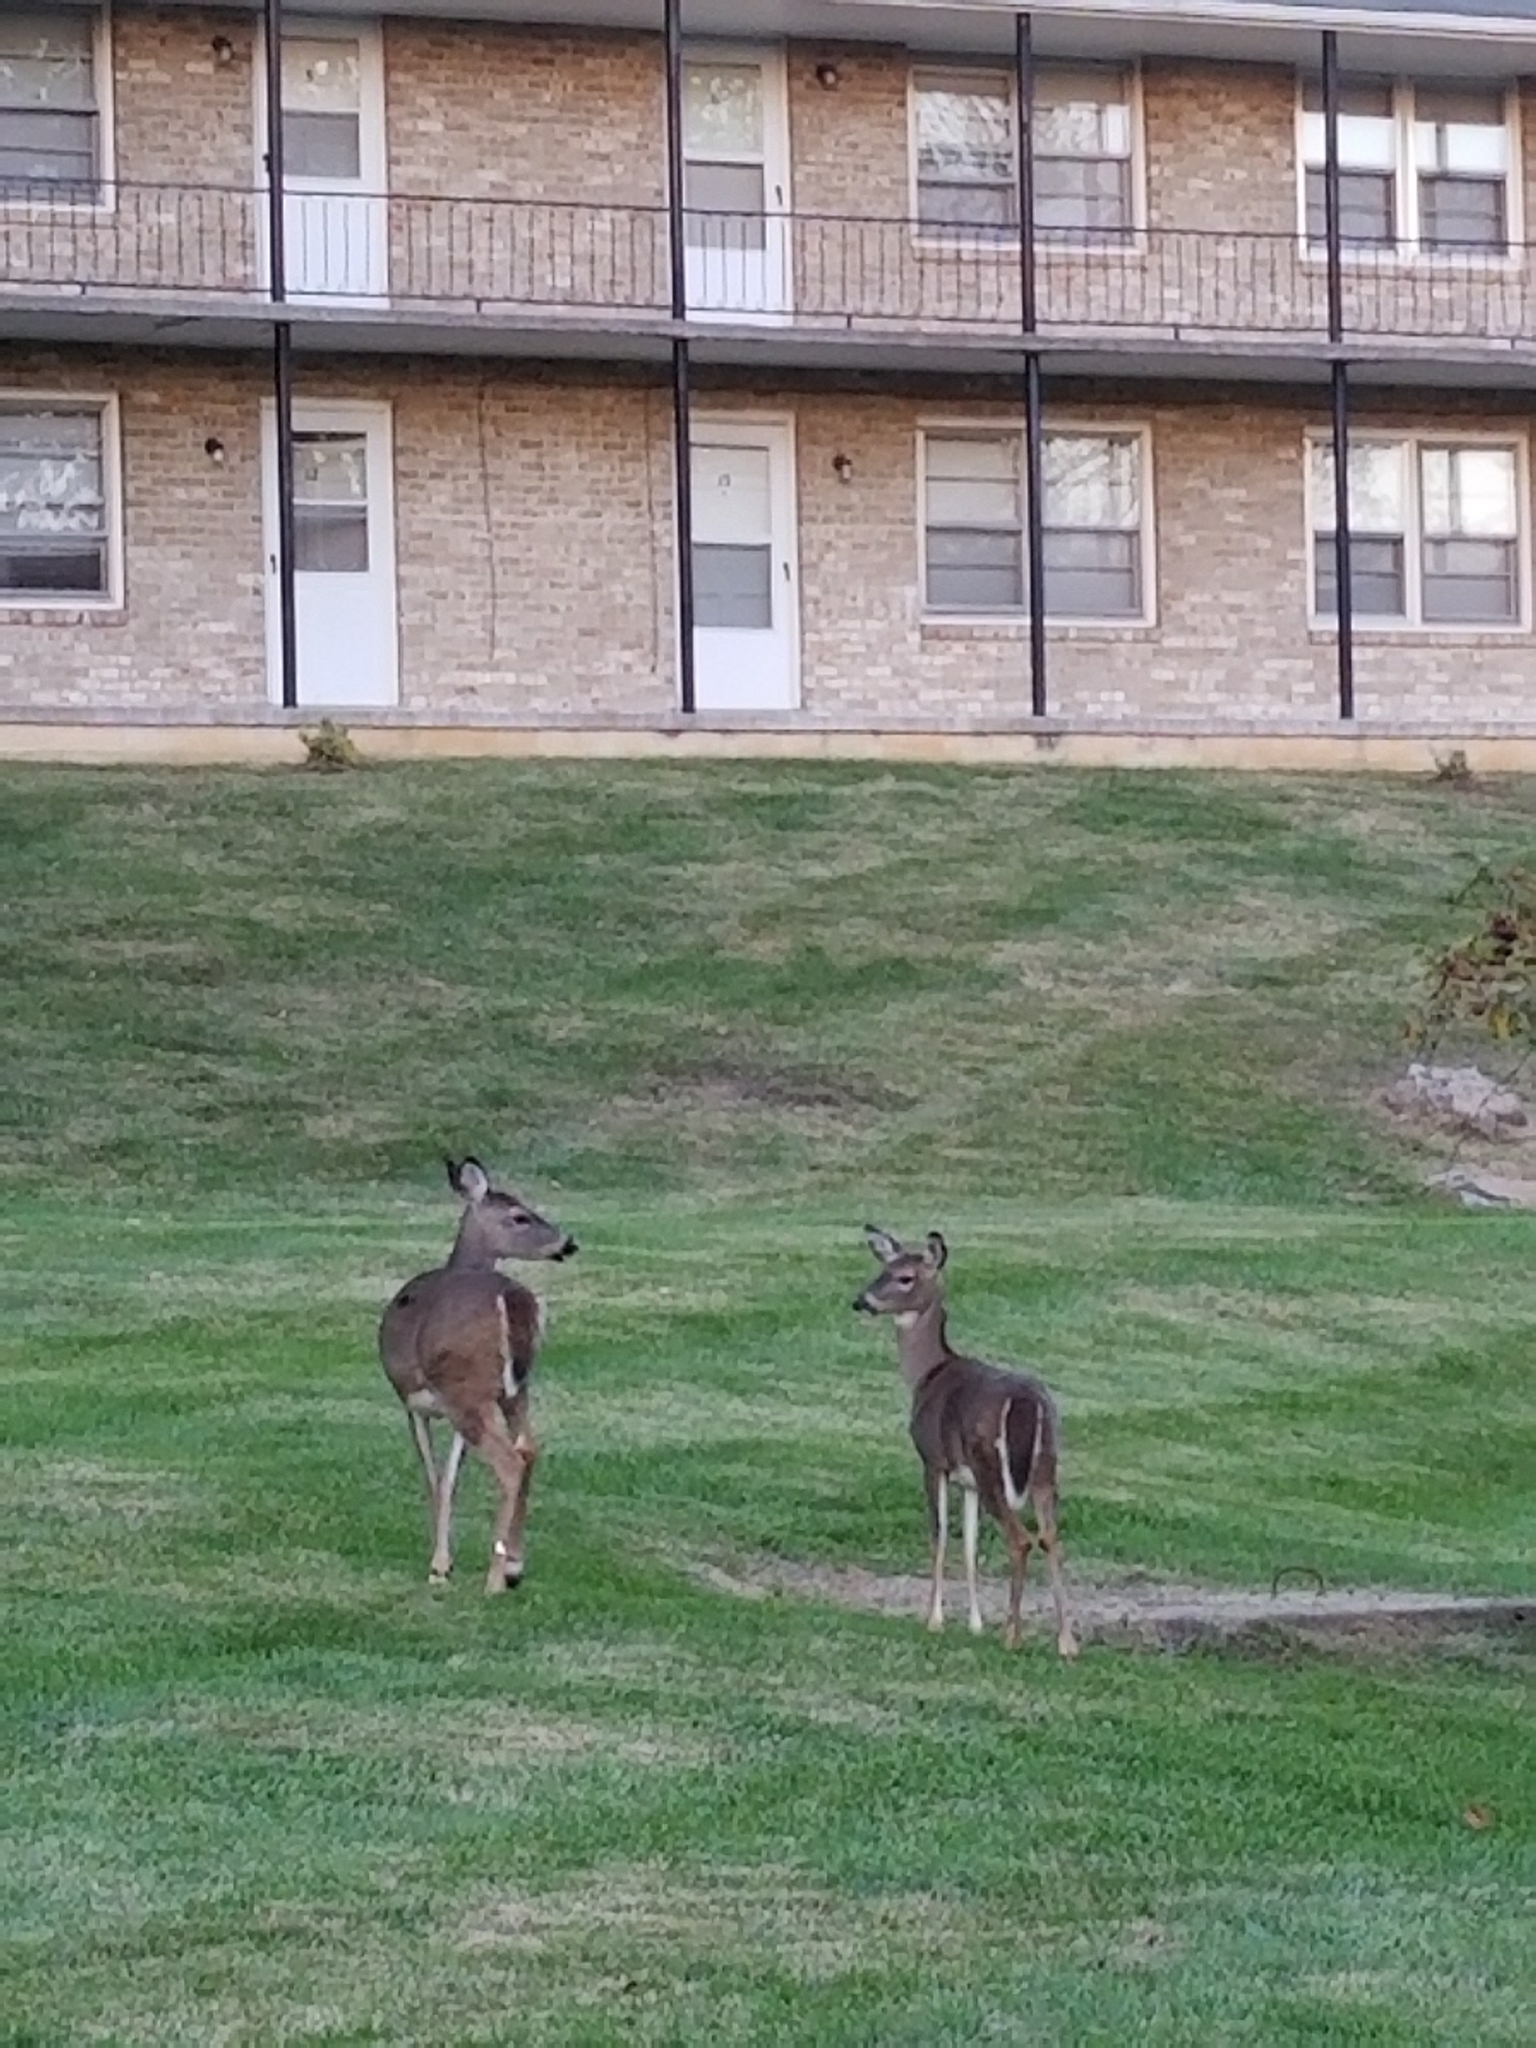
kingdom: Animalia
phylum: Chordata
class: Mammalia
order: Artiodactyla
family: Cervidae
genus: Odocoileus
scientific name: Odocoileus virginianus
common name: White-tailed deer
